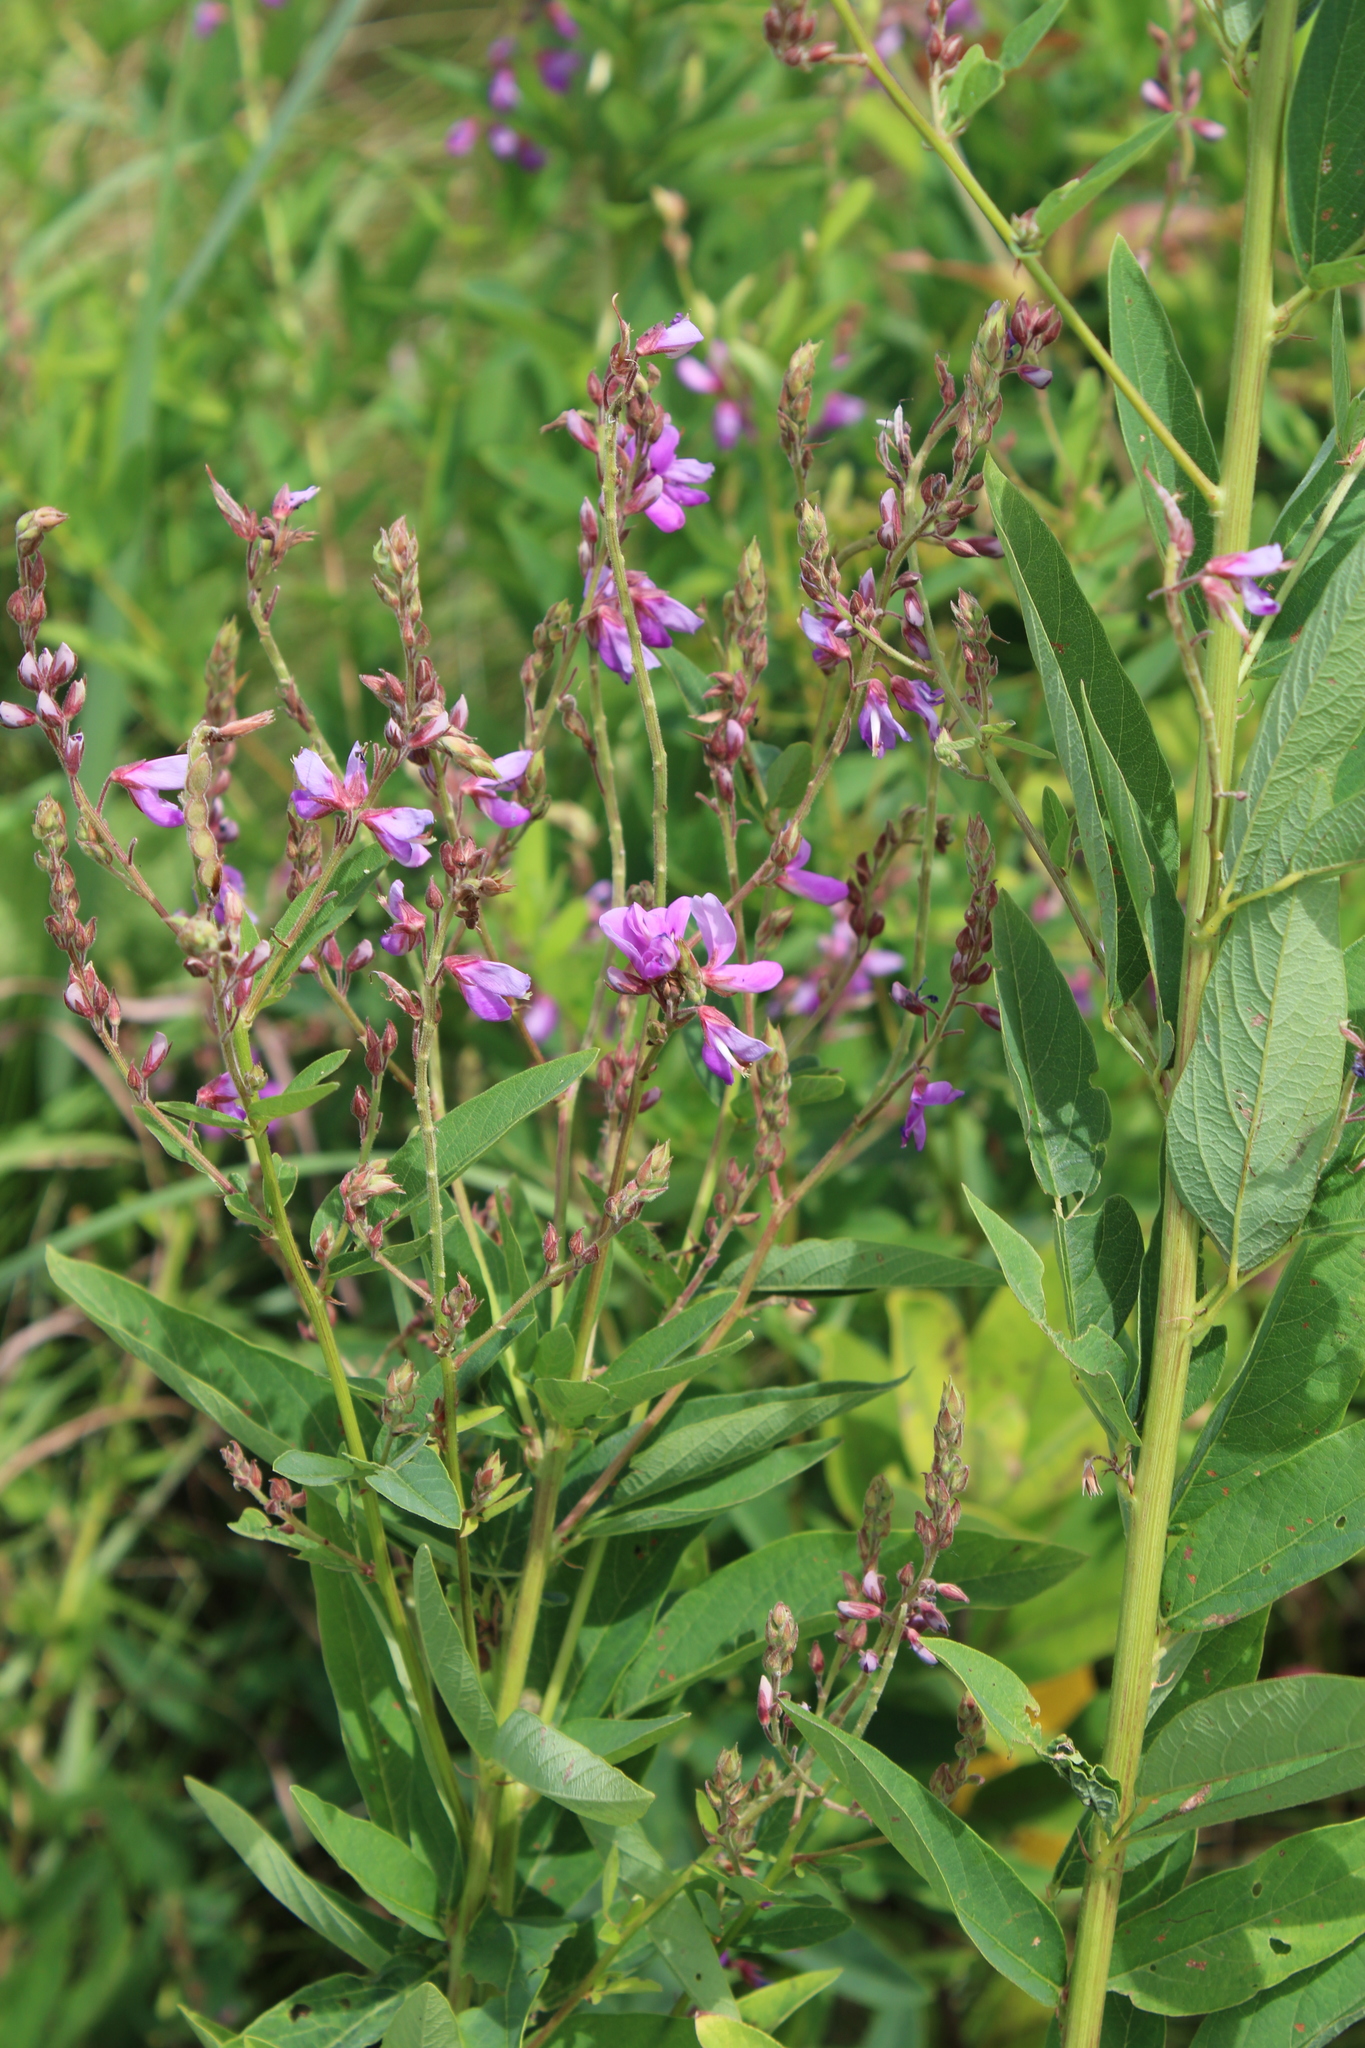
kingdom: Plantae
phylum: Tracheophyta
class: Magnoliopsida
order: Fabales
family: Fabaceae
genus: Desmodium
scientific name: Desmodium canadense
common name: Canada tick-trefoil
